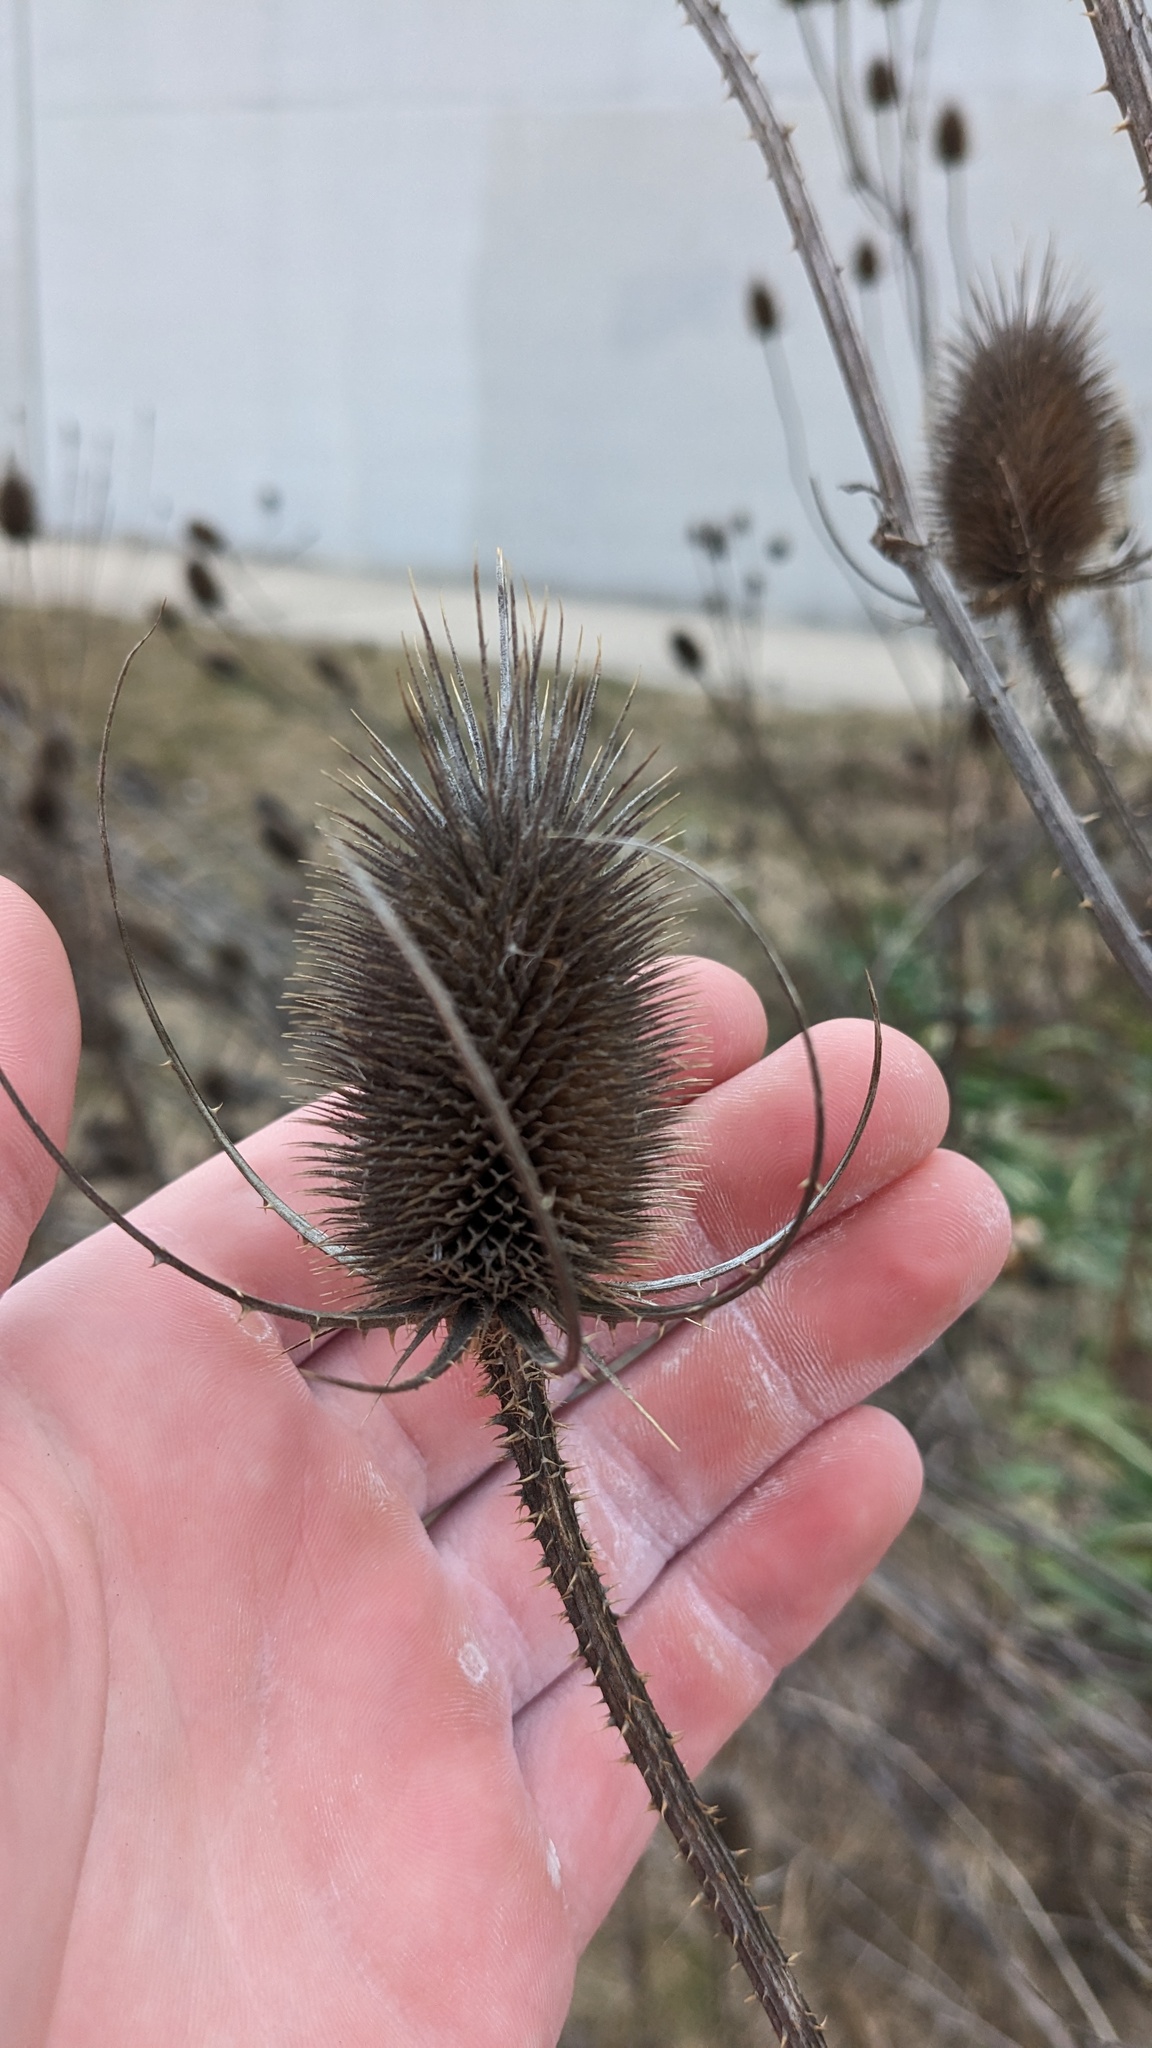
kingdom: Plantae
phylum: Tracheophyta
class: Magnoliopsida
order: Dipsacales
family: Caprifoliaceae
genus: Dipsacus
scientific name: Dipsacus fullonum
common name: Teasel
